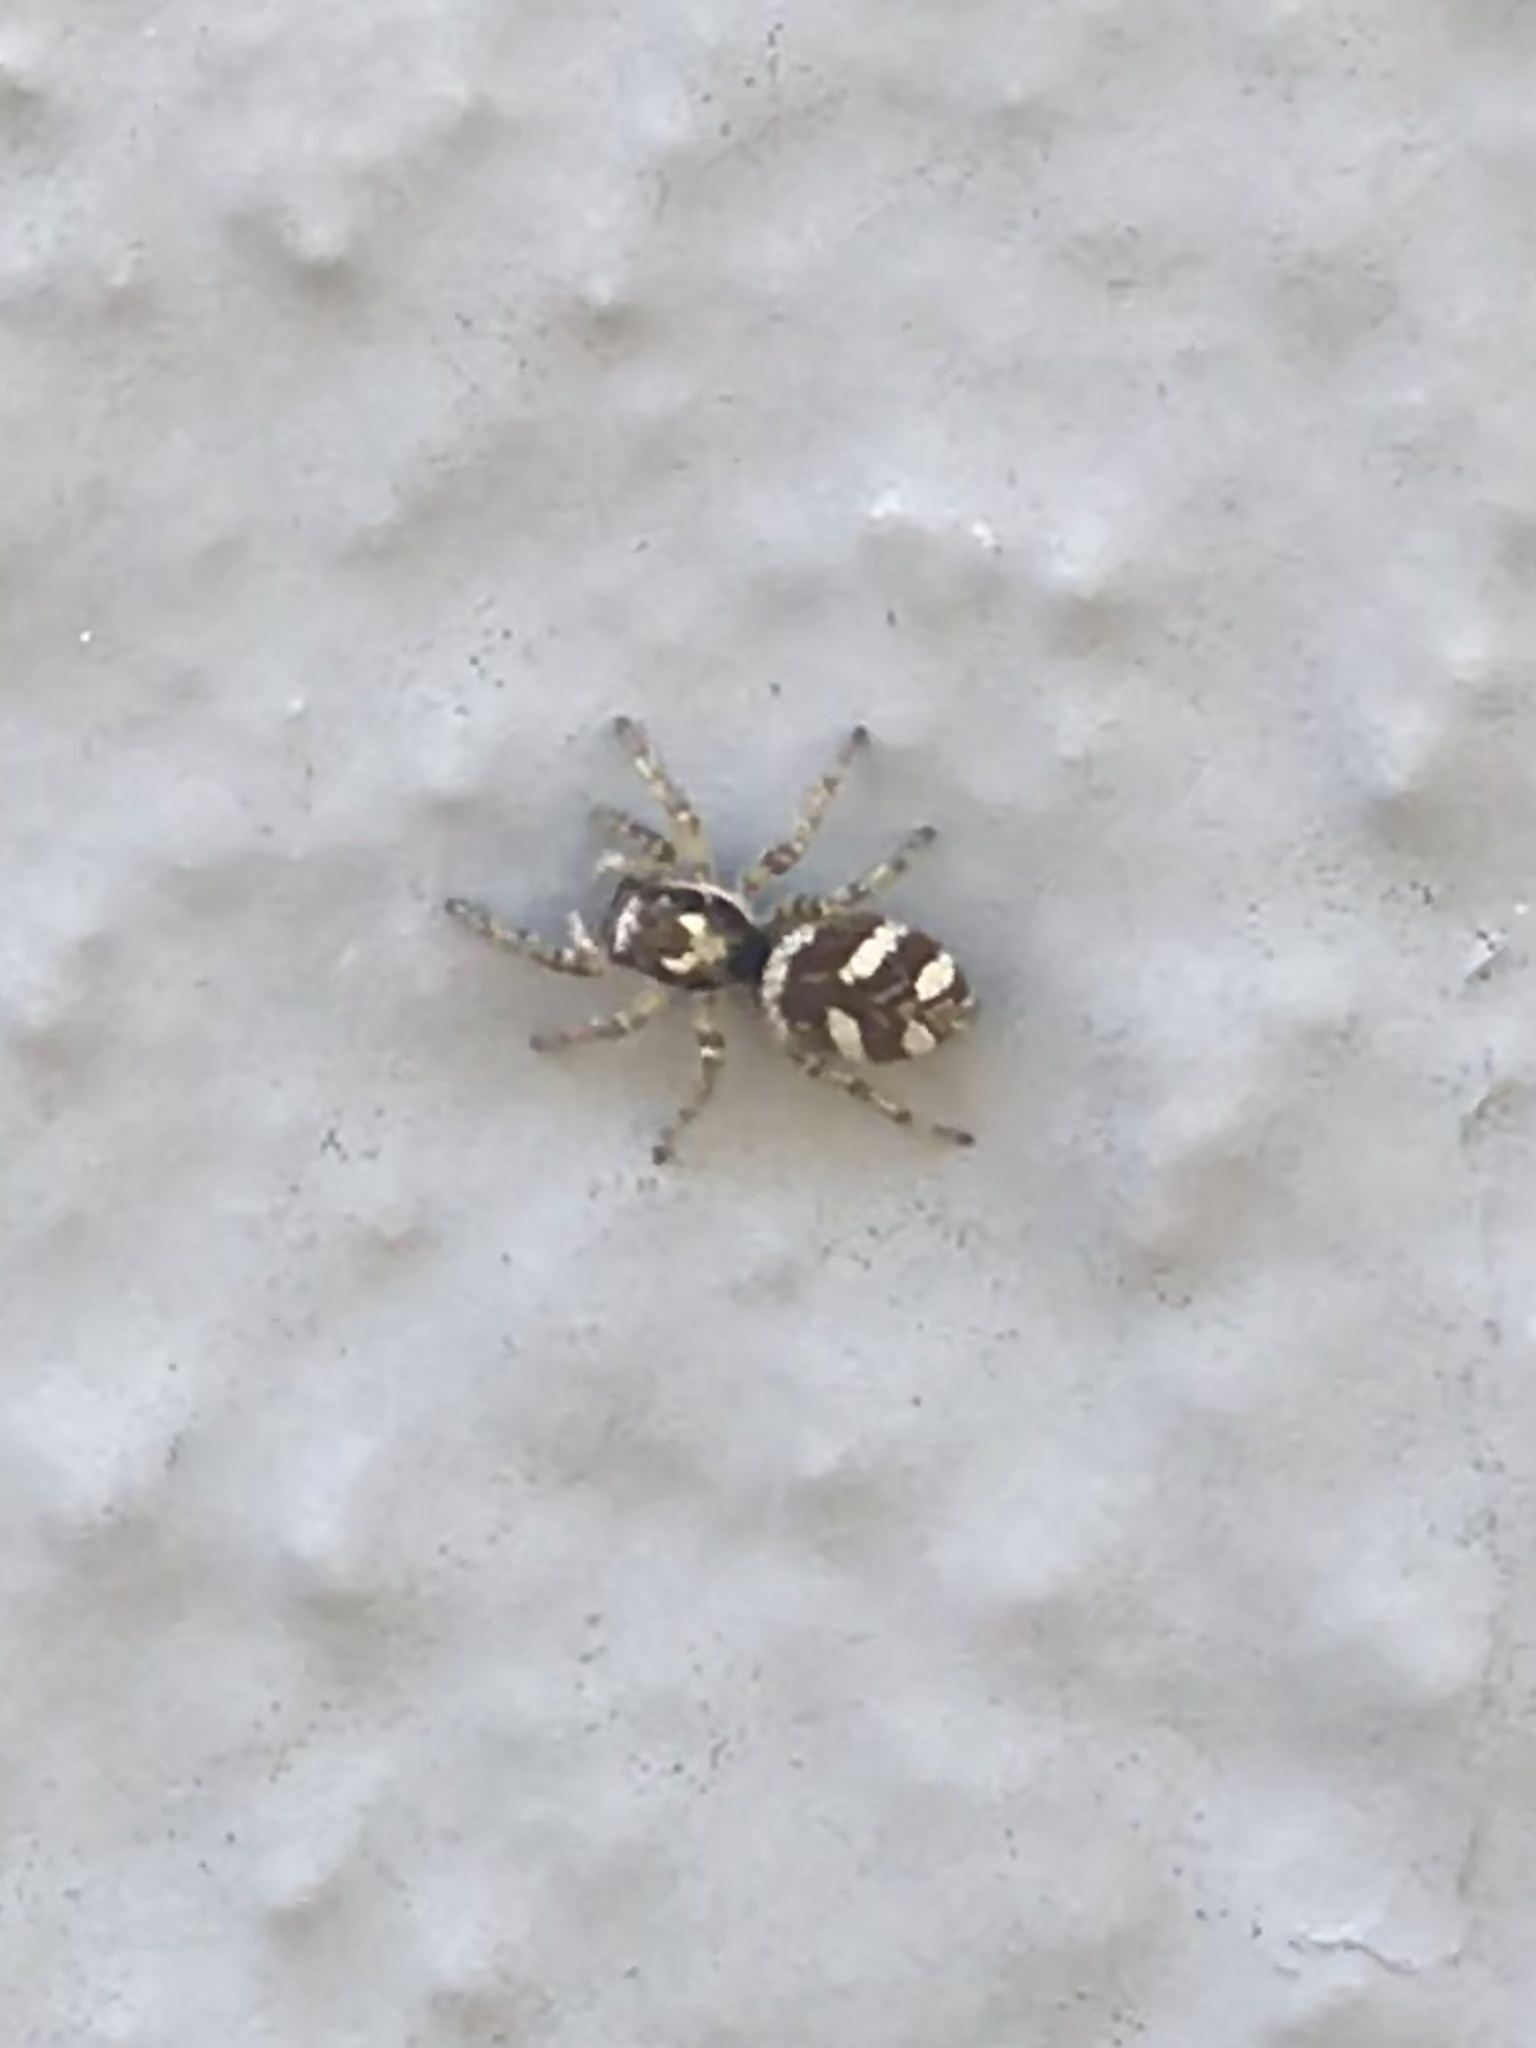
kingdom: Animalia
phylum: Arthropoda
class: Arachnida
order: Araneae
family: Salticidae
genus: Salticus
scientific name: Salticus scenicus
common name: Zebra jumper
